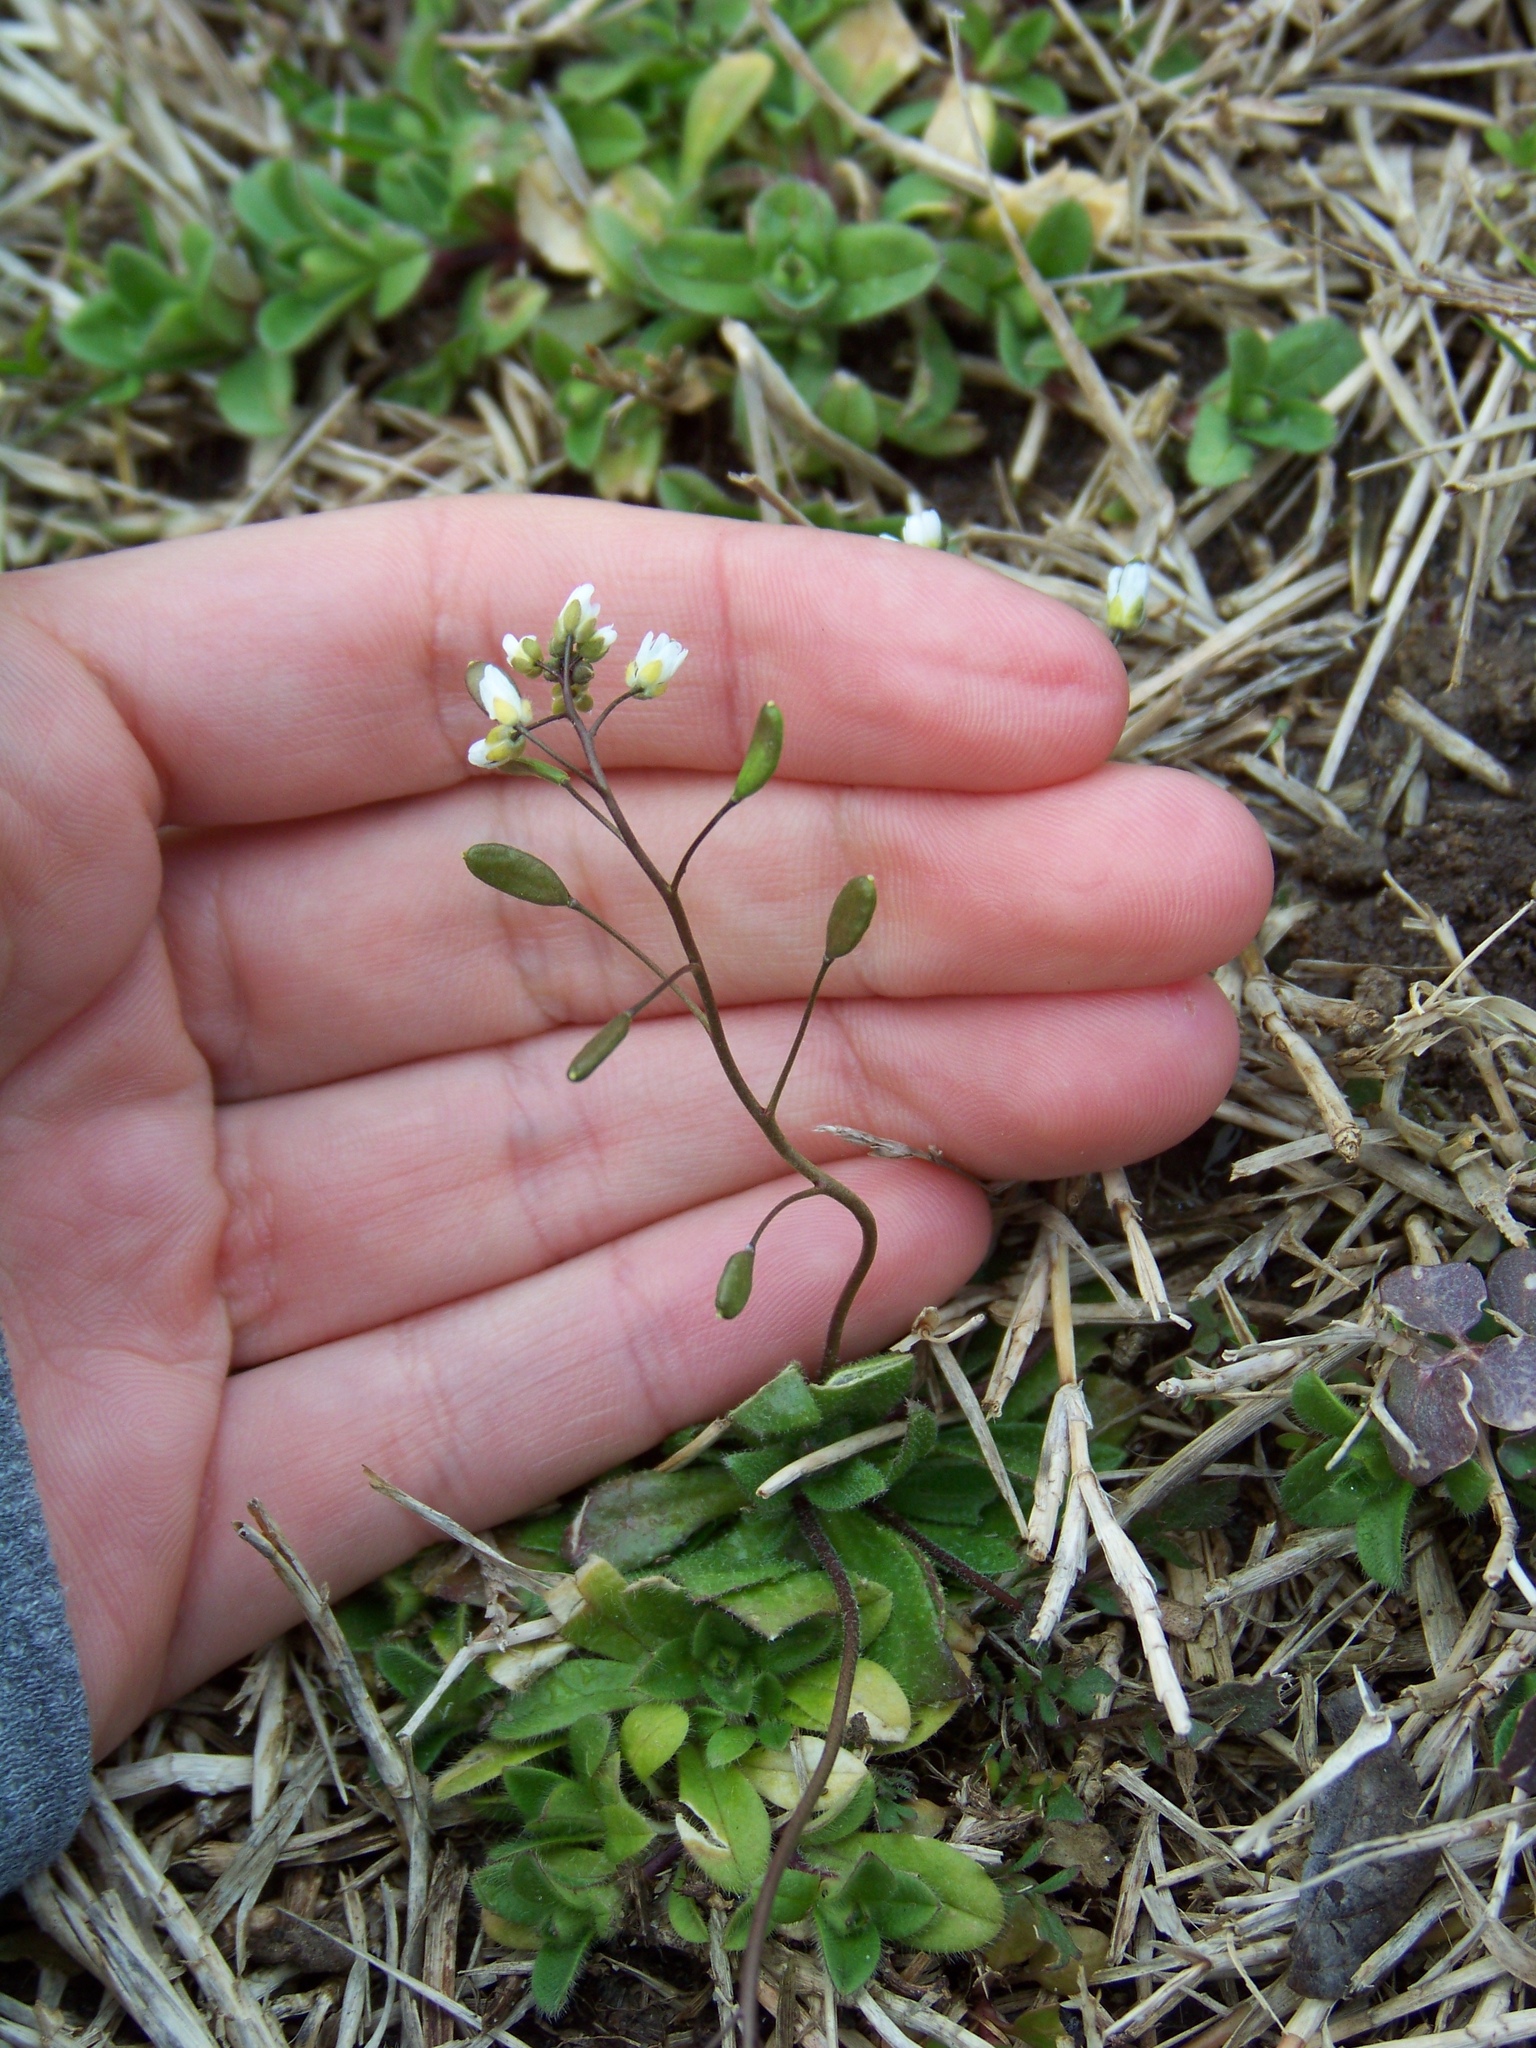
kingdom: Plantae
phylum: Tracheophyta
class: Magnoliopsida
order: Brassicales
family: Brassicaceae
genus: Draba
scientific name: Draba verna
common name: Spring draba
